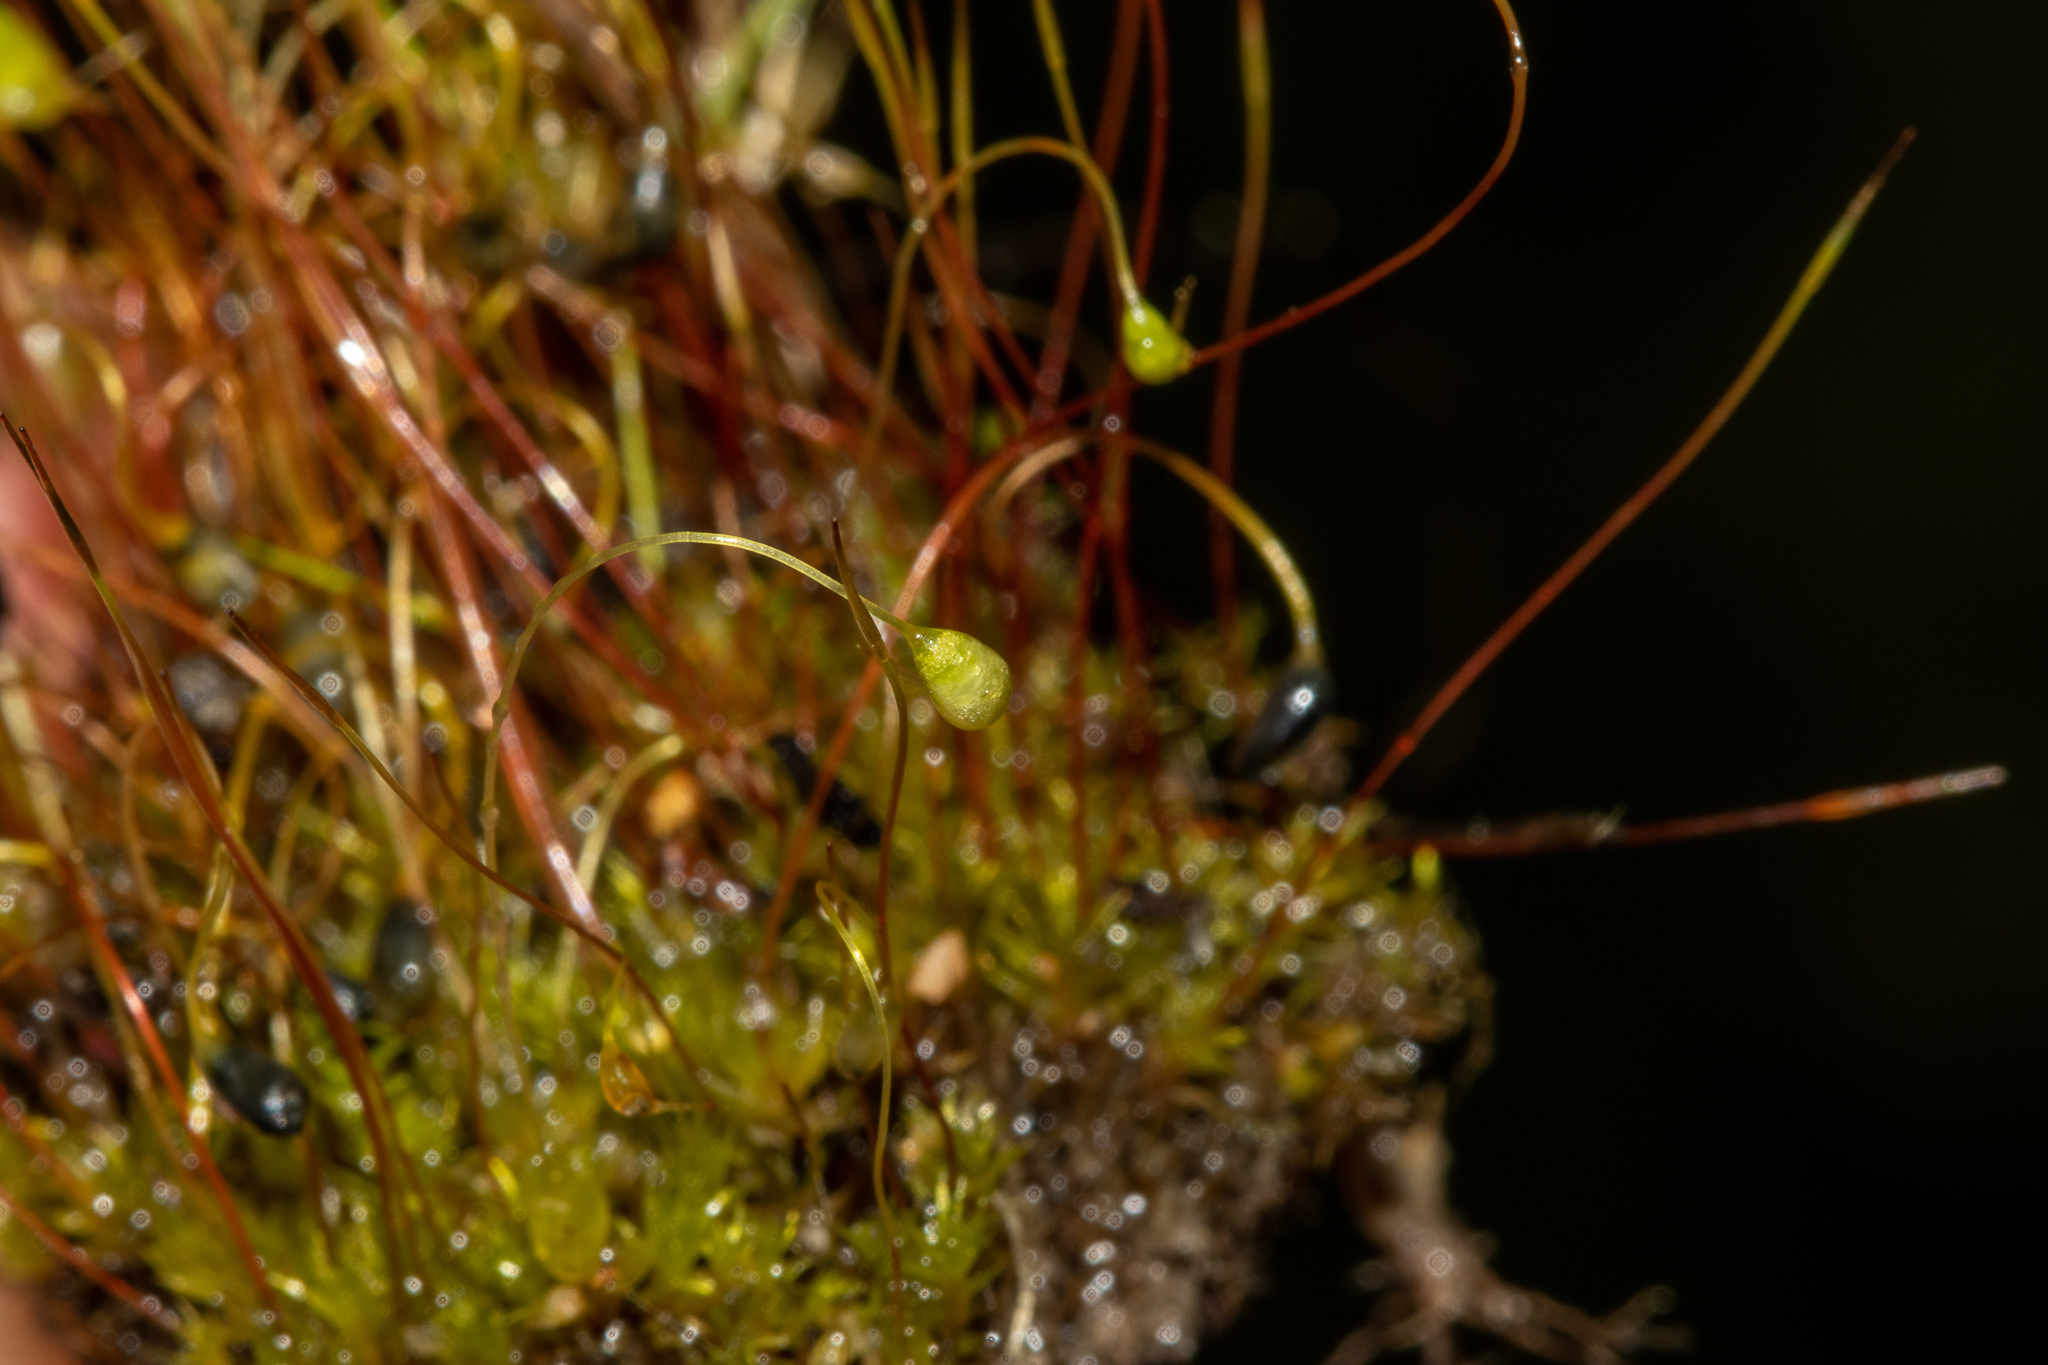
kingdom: Plantae
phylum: Bryophyta
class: Bryopsida
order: Funariales
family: Funariaceae
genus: Funaria
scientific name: Funaria hygrometrica
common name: Common cord moss
